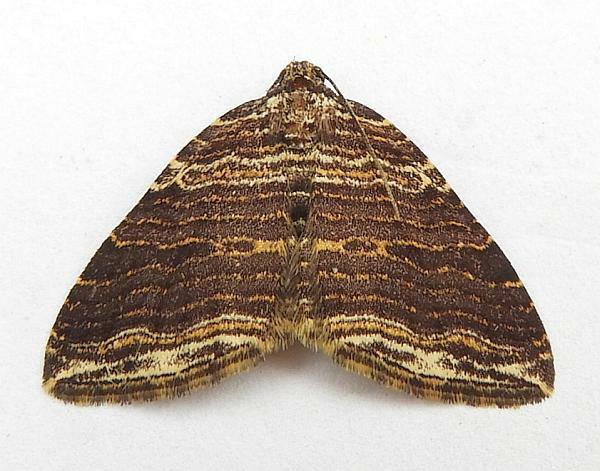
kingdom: Animalia
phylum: Arthropoda
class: Insecta
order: Lepidoptera
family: Geometridae
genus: Anticlea
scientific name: Anticlea multiferata
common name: Many-lined carpet
